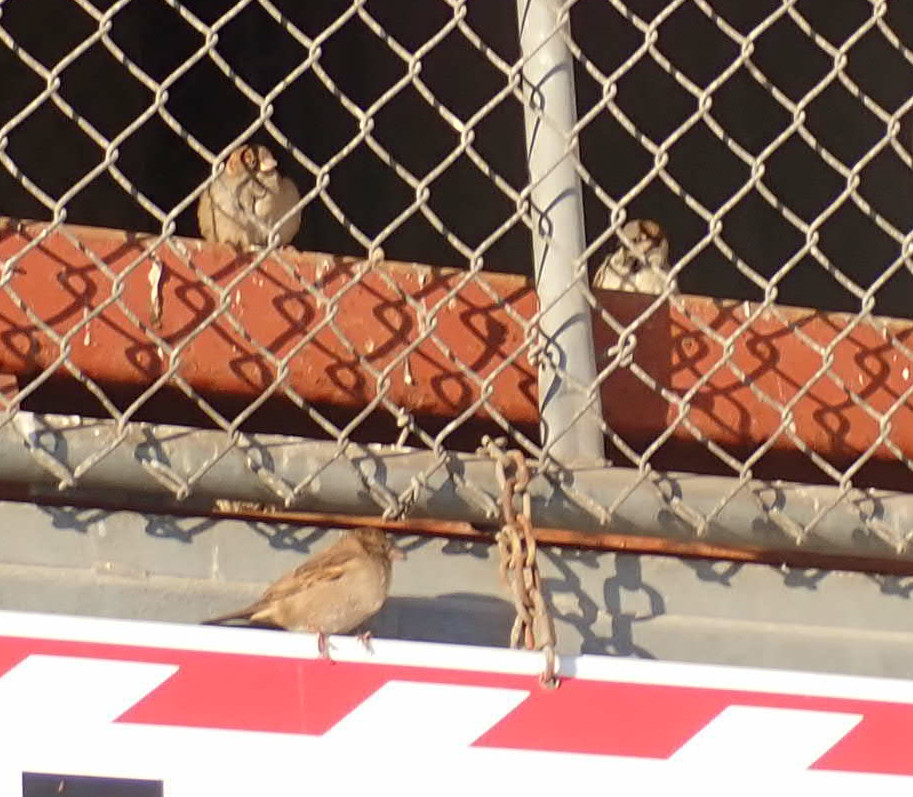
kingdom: Animalia
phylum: Chordata
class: Aves
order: Passeriformes
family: Passeridae
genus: Passer
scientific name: Passer domesticus
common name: House sparrow
